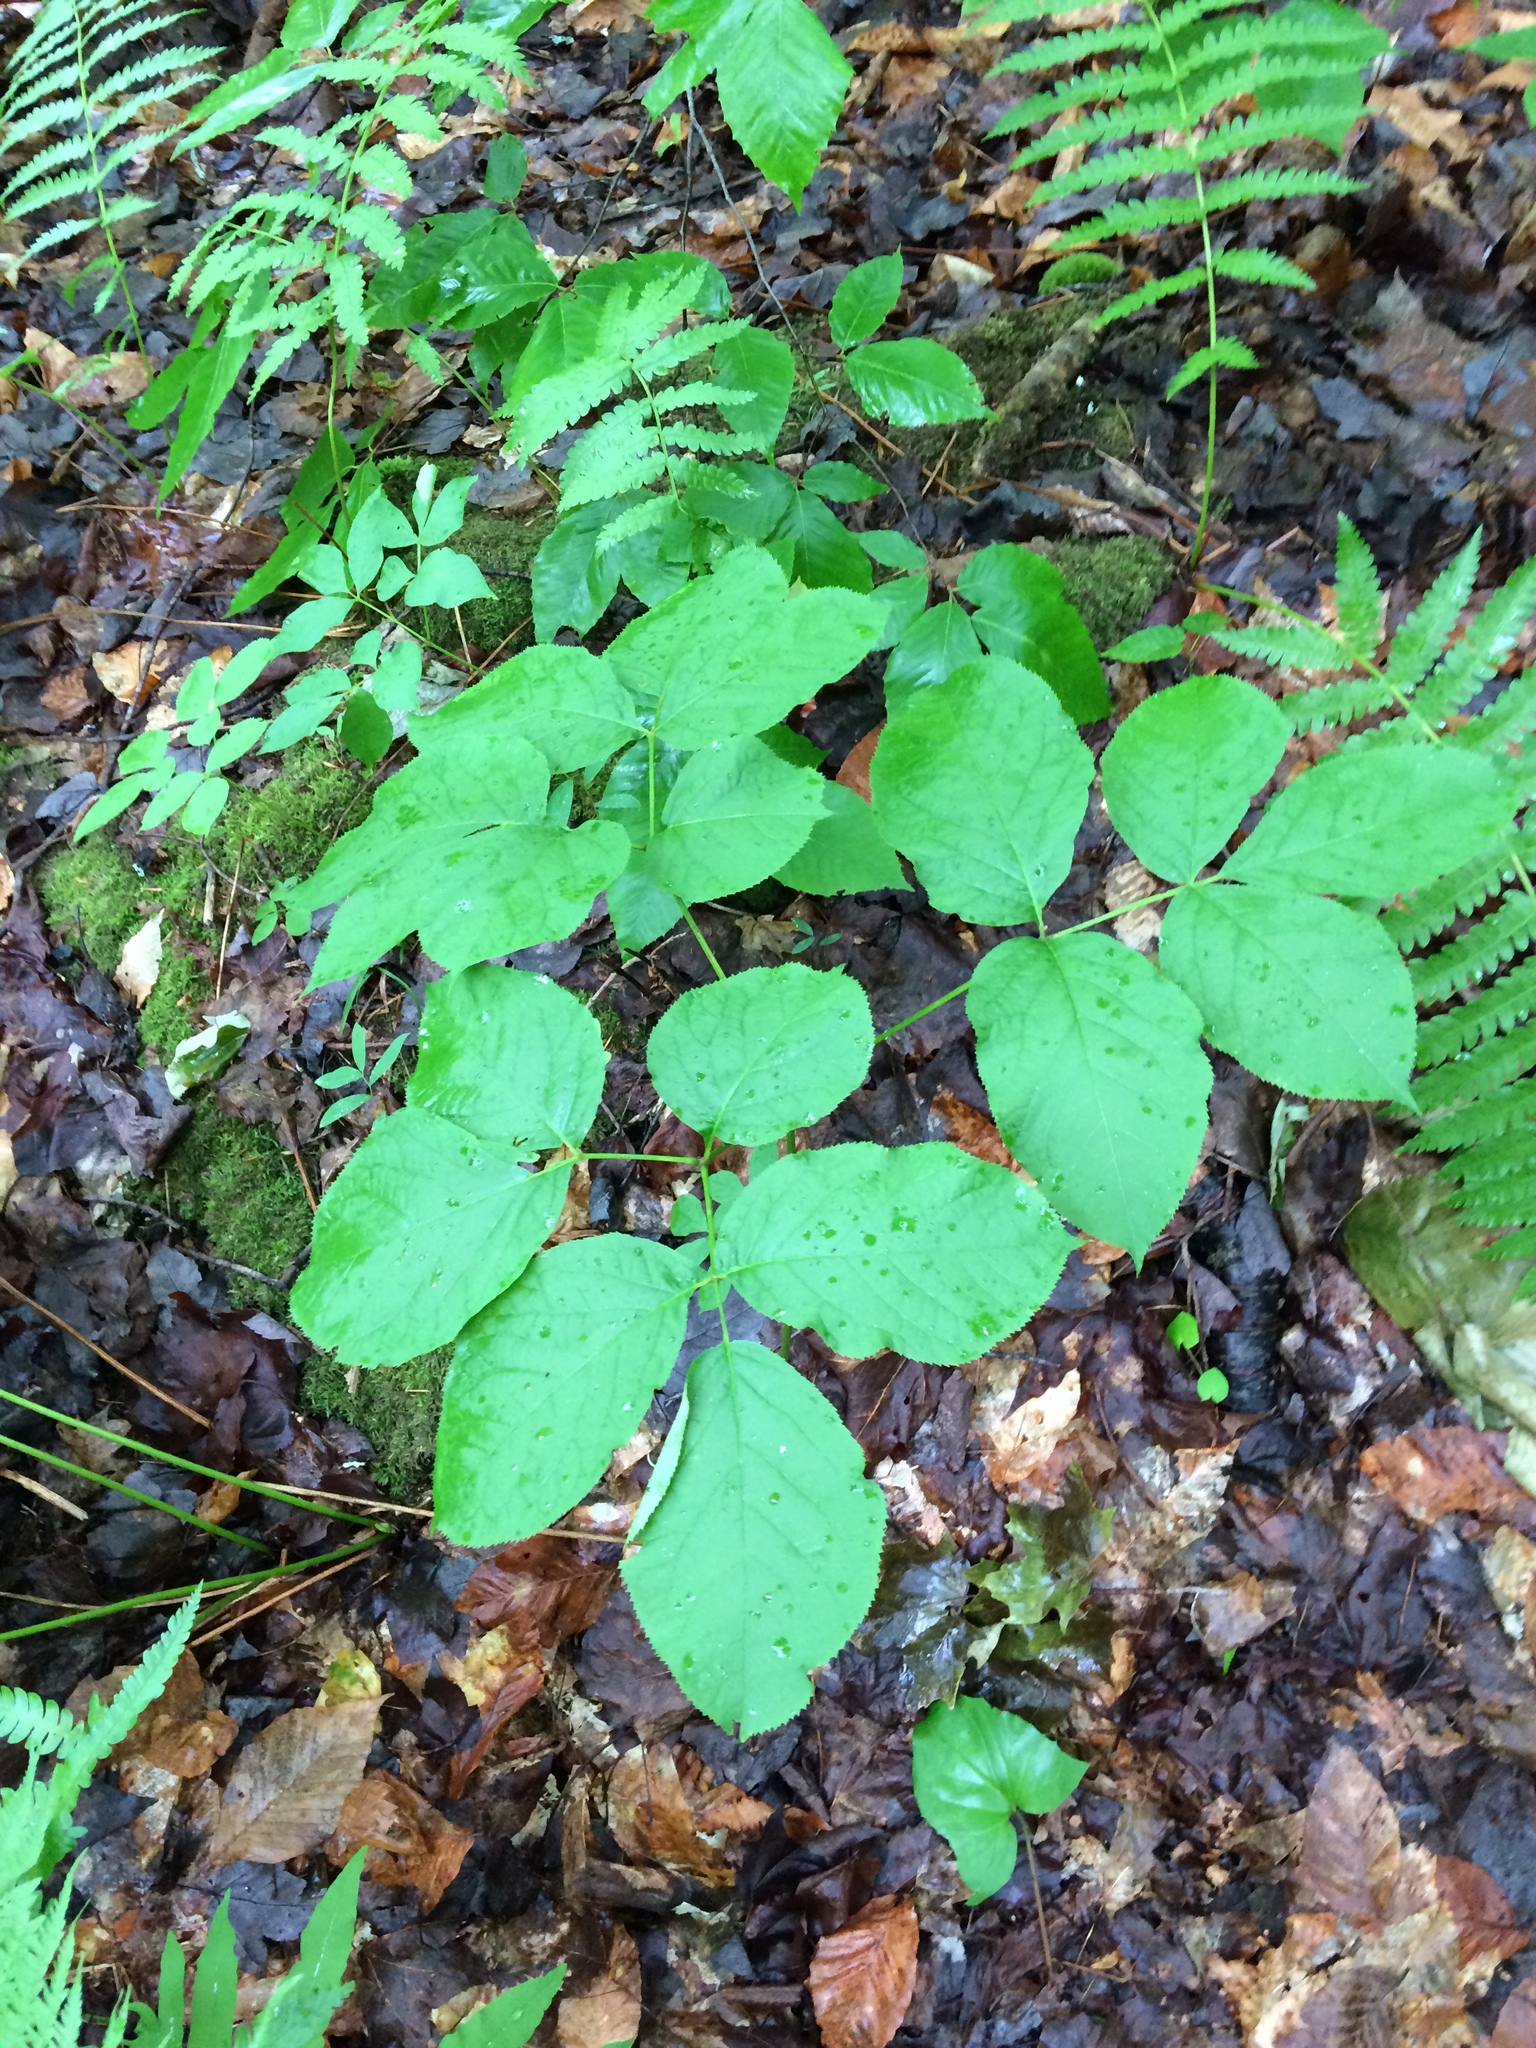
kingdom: Plantae
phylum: Tracheophyta
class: Magnoliopsida
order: Apiales
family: Araliaceae
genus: Aralia
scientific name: Aralia nudicaulis
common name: Wild sarsaparilla
